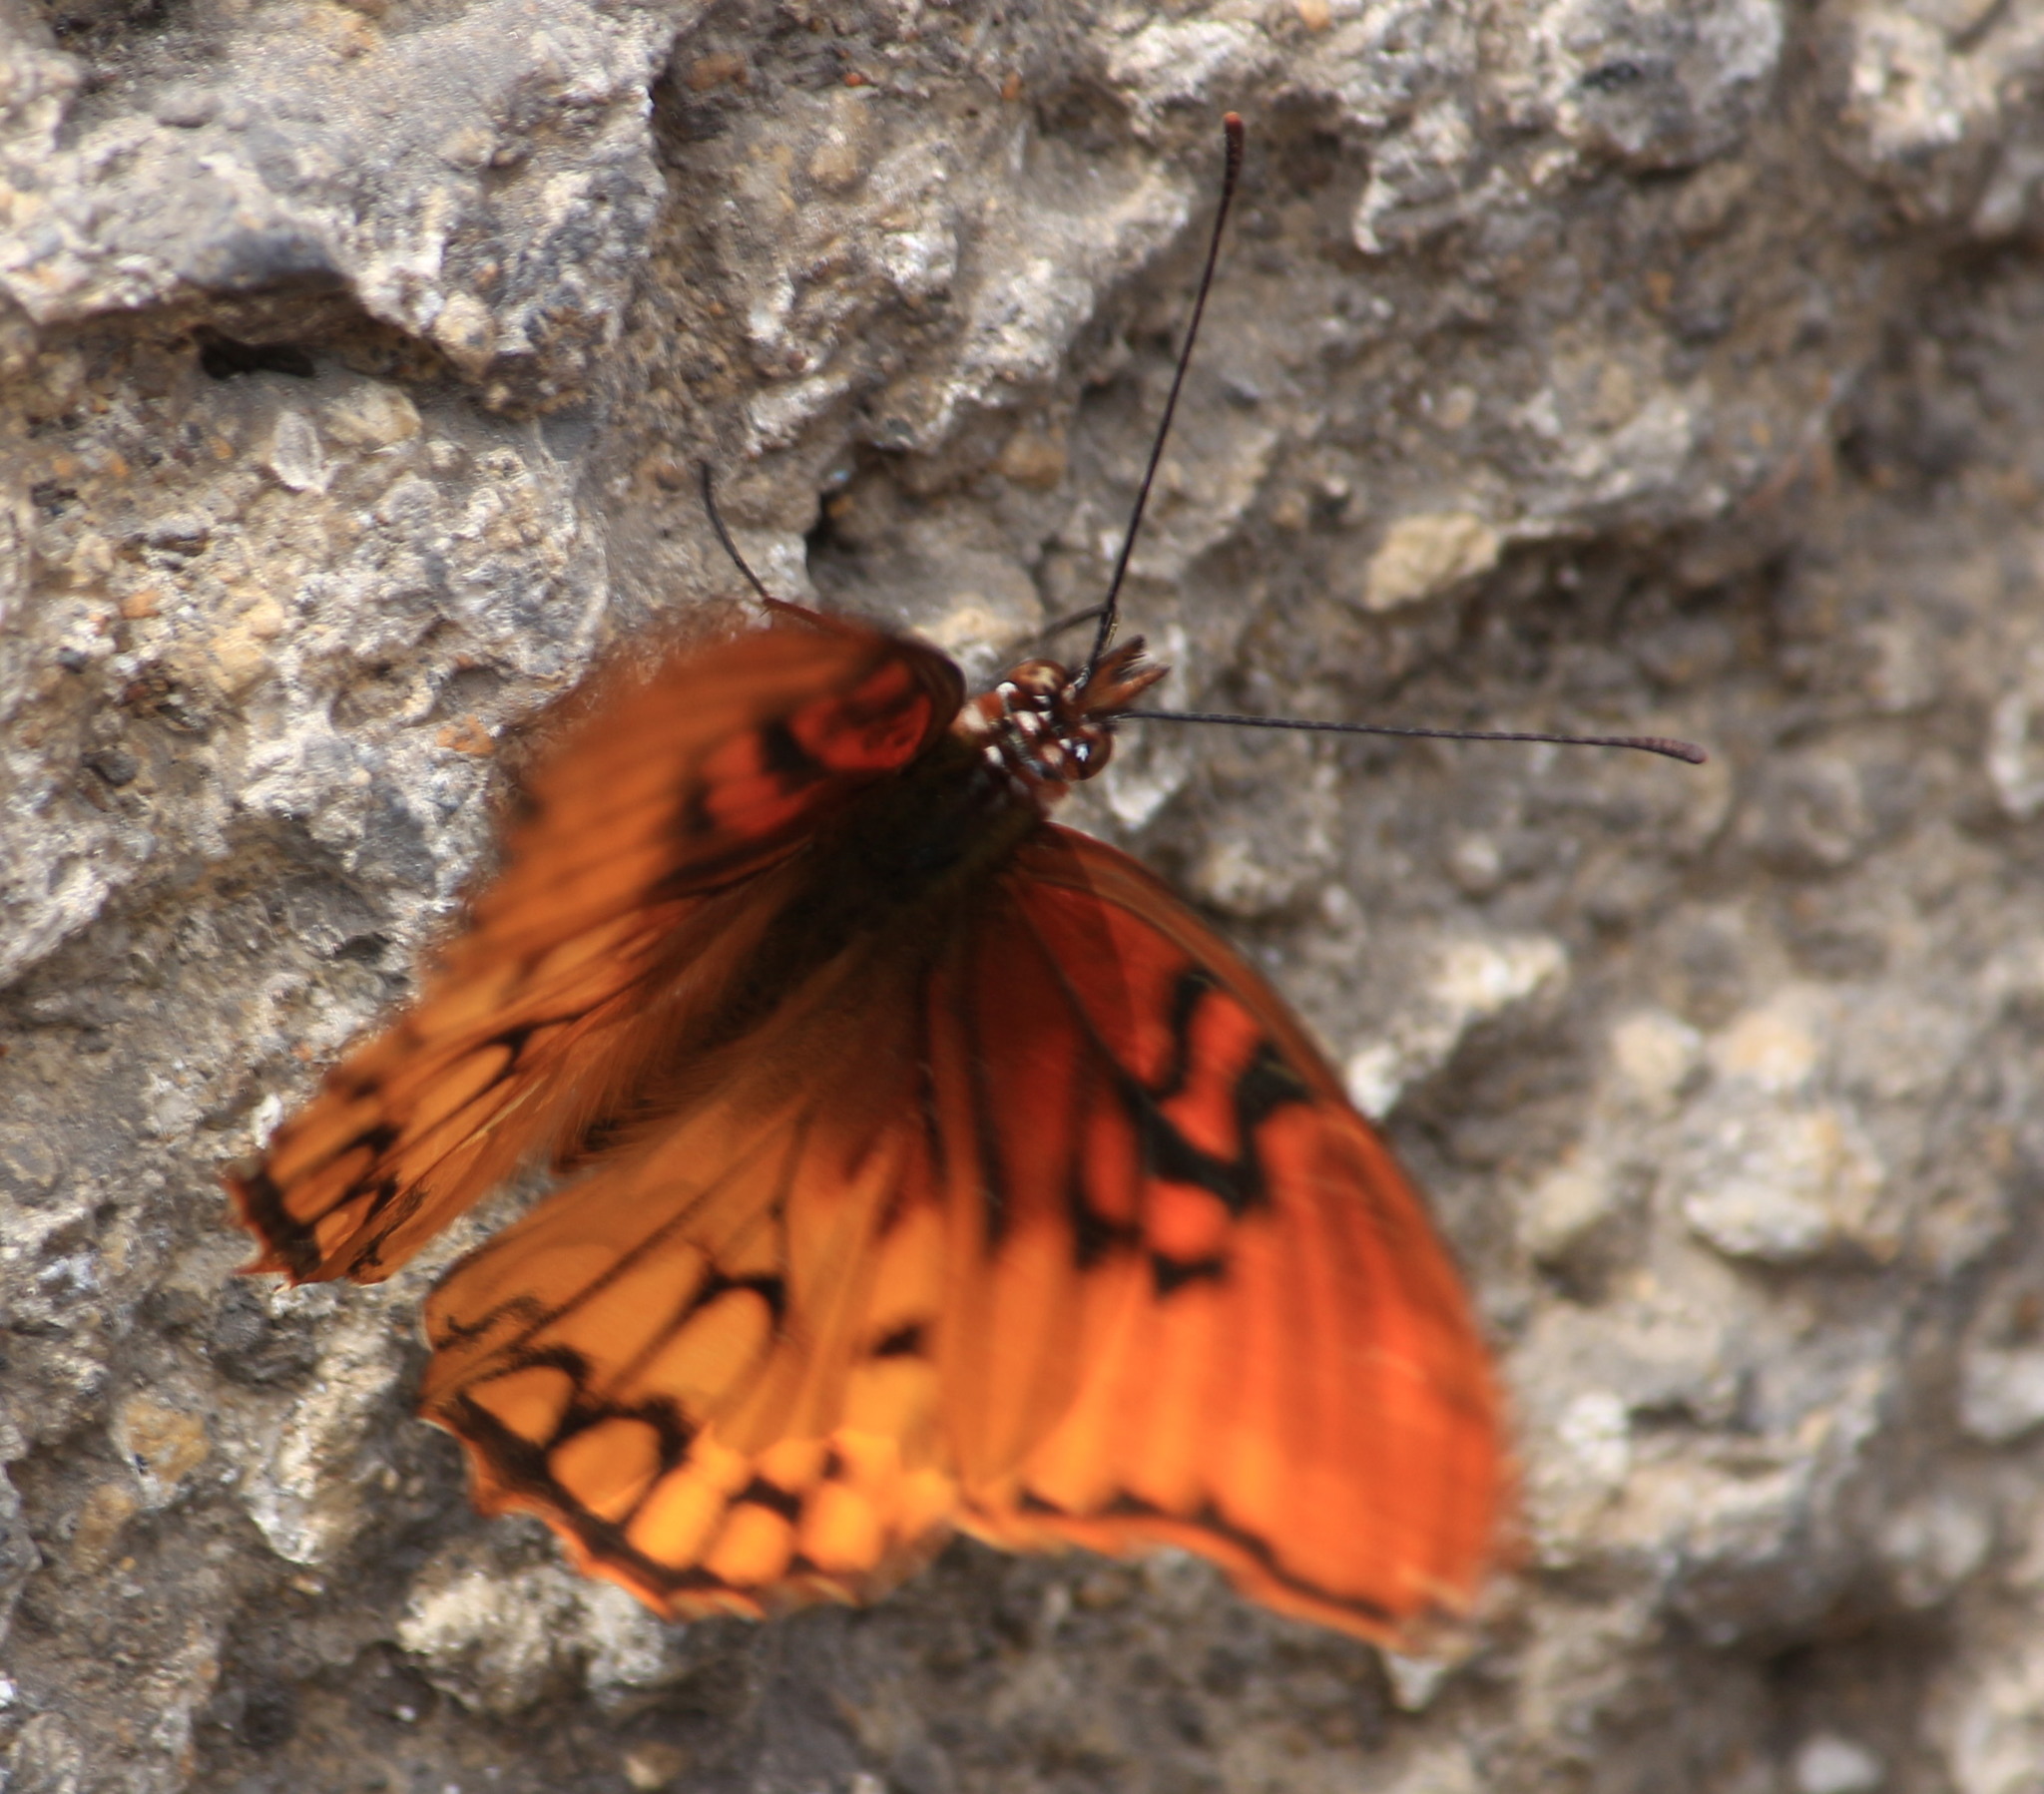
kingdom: Animalia
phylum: Arthropoda
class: Insecta
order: Lepidoptera
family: Nymphalidae
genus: Dione
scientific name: Dione moneta
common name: Mexican silverspot
